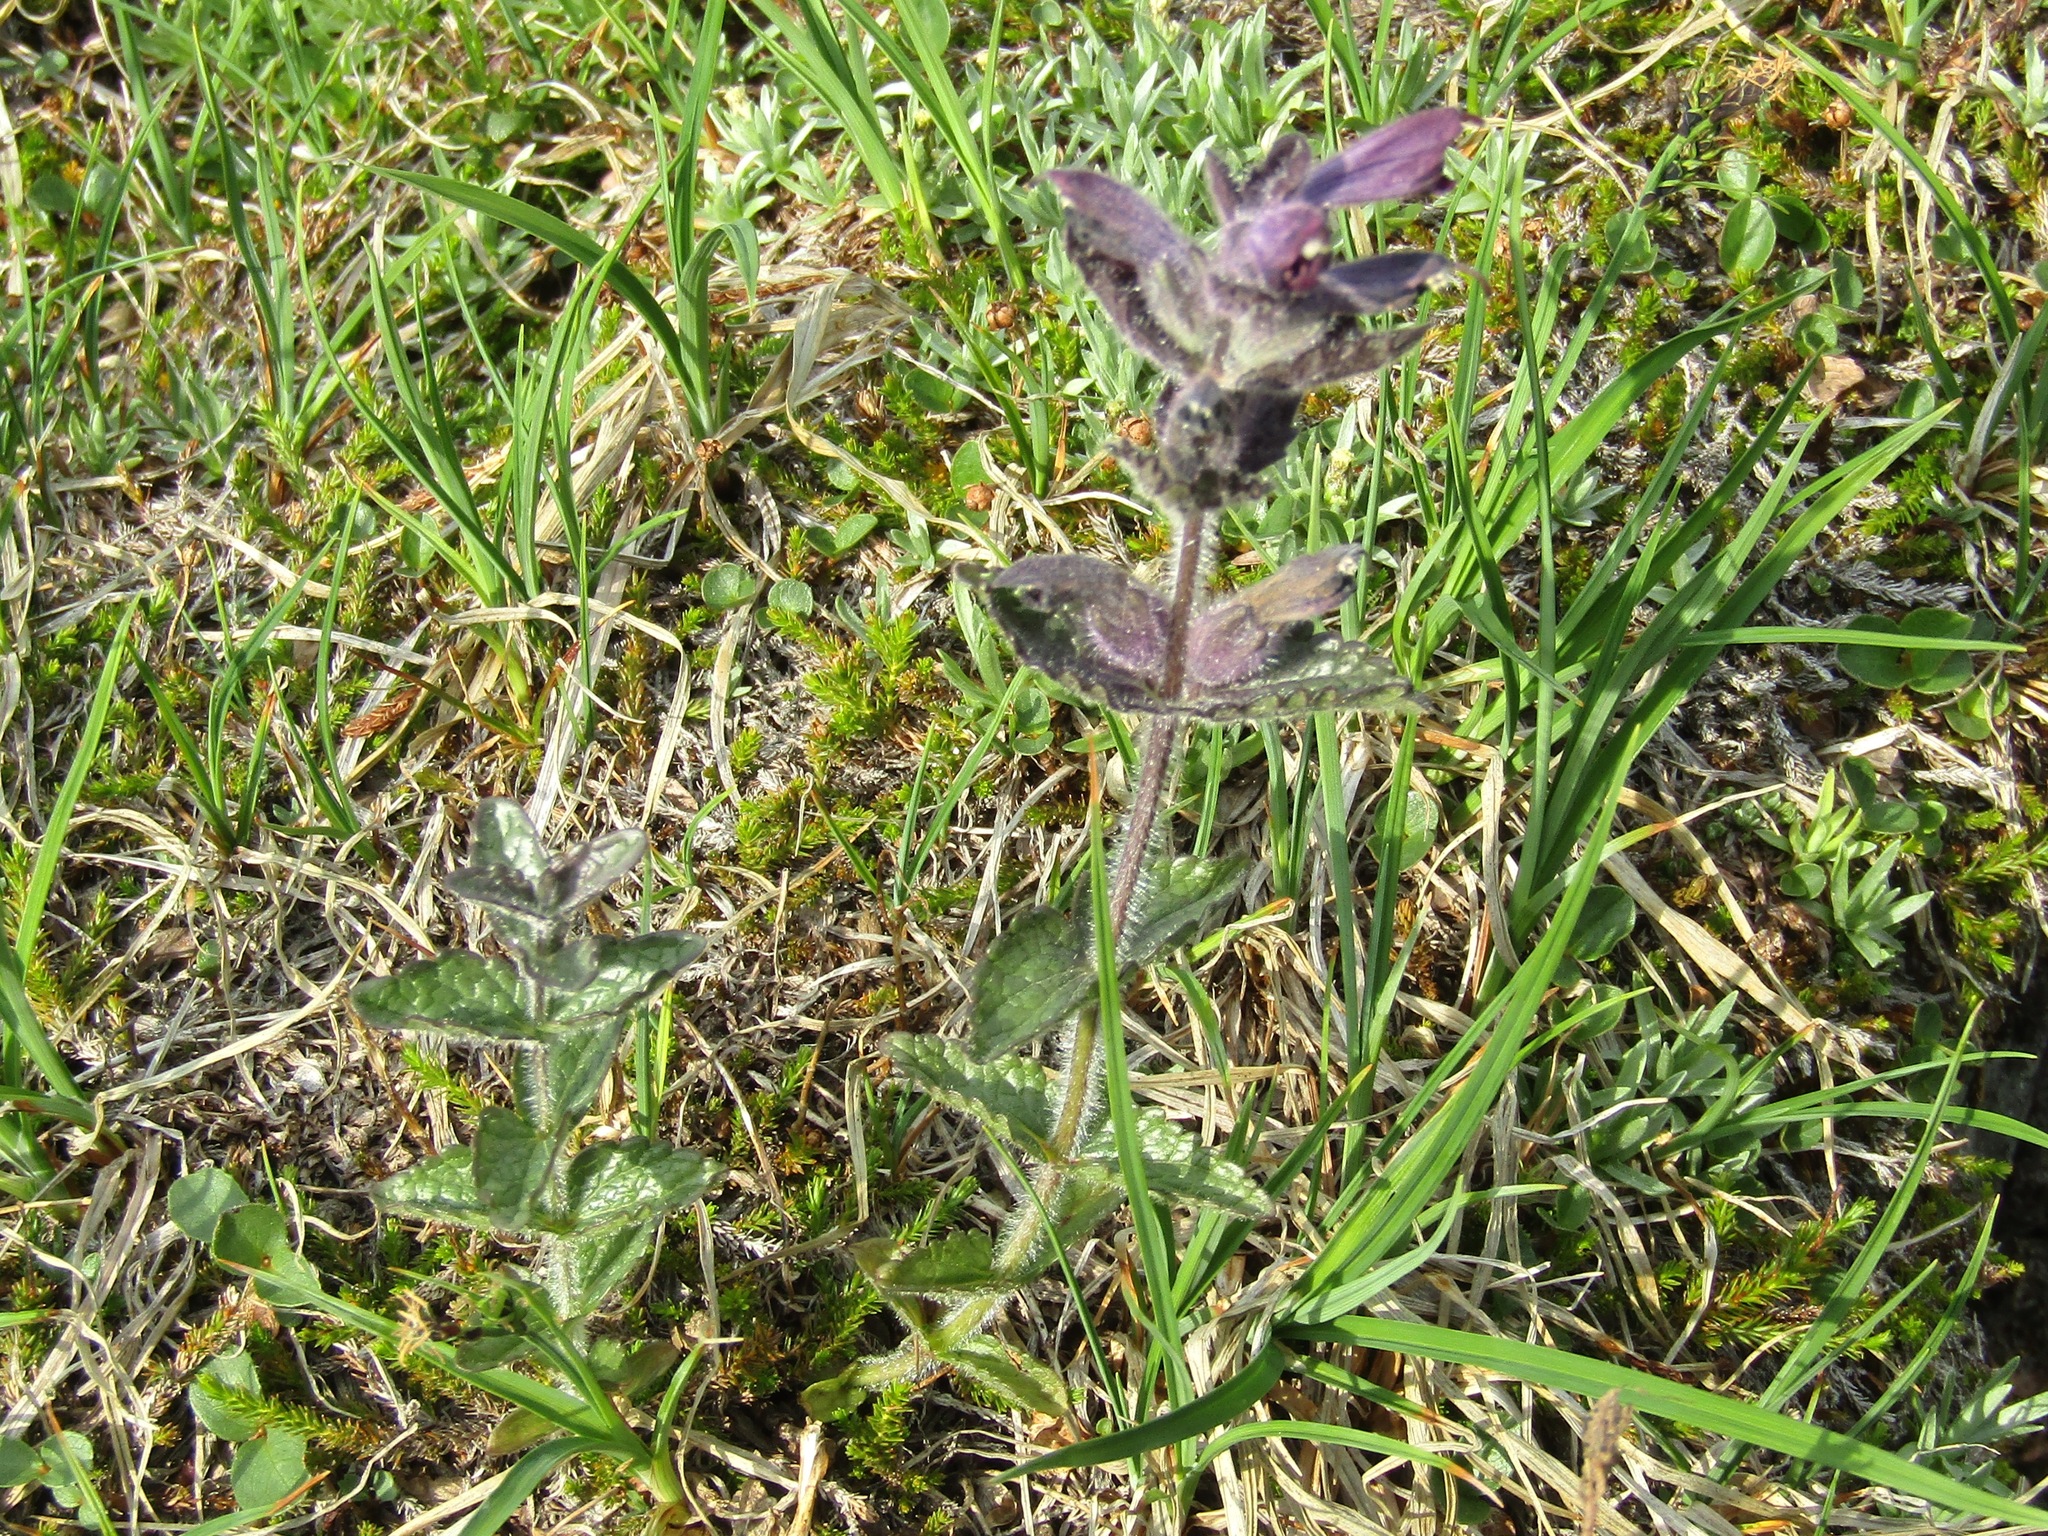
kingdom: Plantae
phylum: Tracheophyta
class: Magnoliopsida
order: Lamiales
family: Orobanchaceae
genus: Bartsia
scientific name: Bartsia alpina
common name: Alpine bartsia
